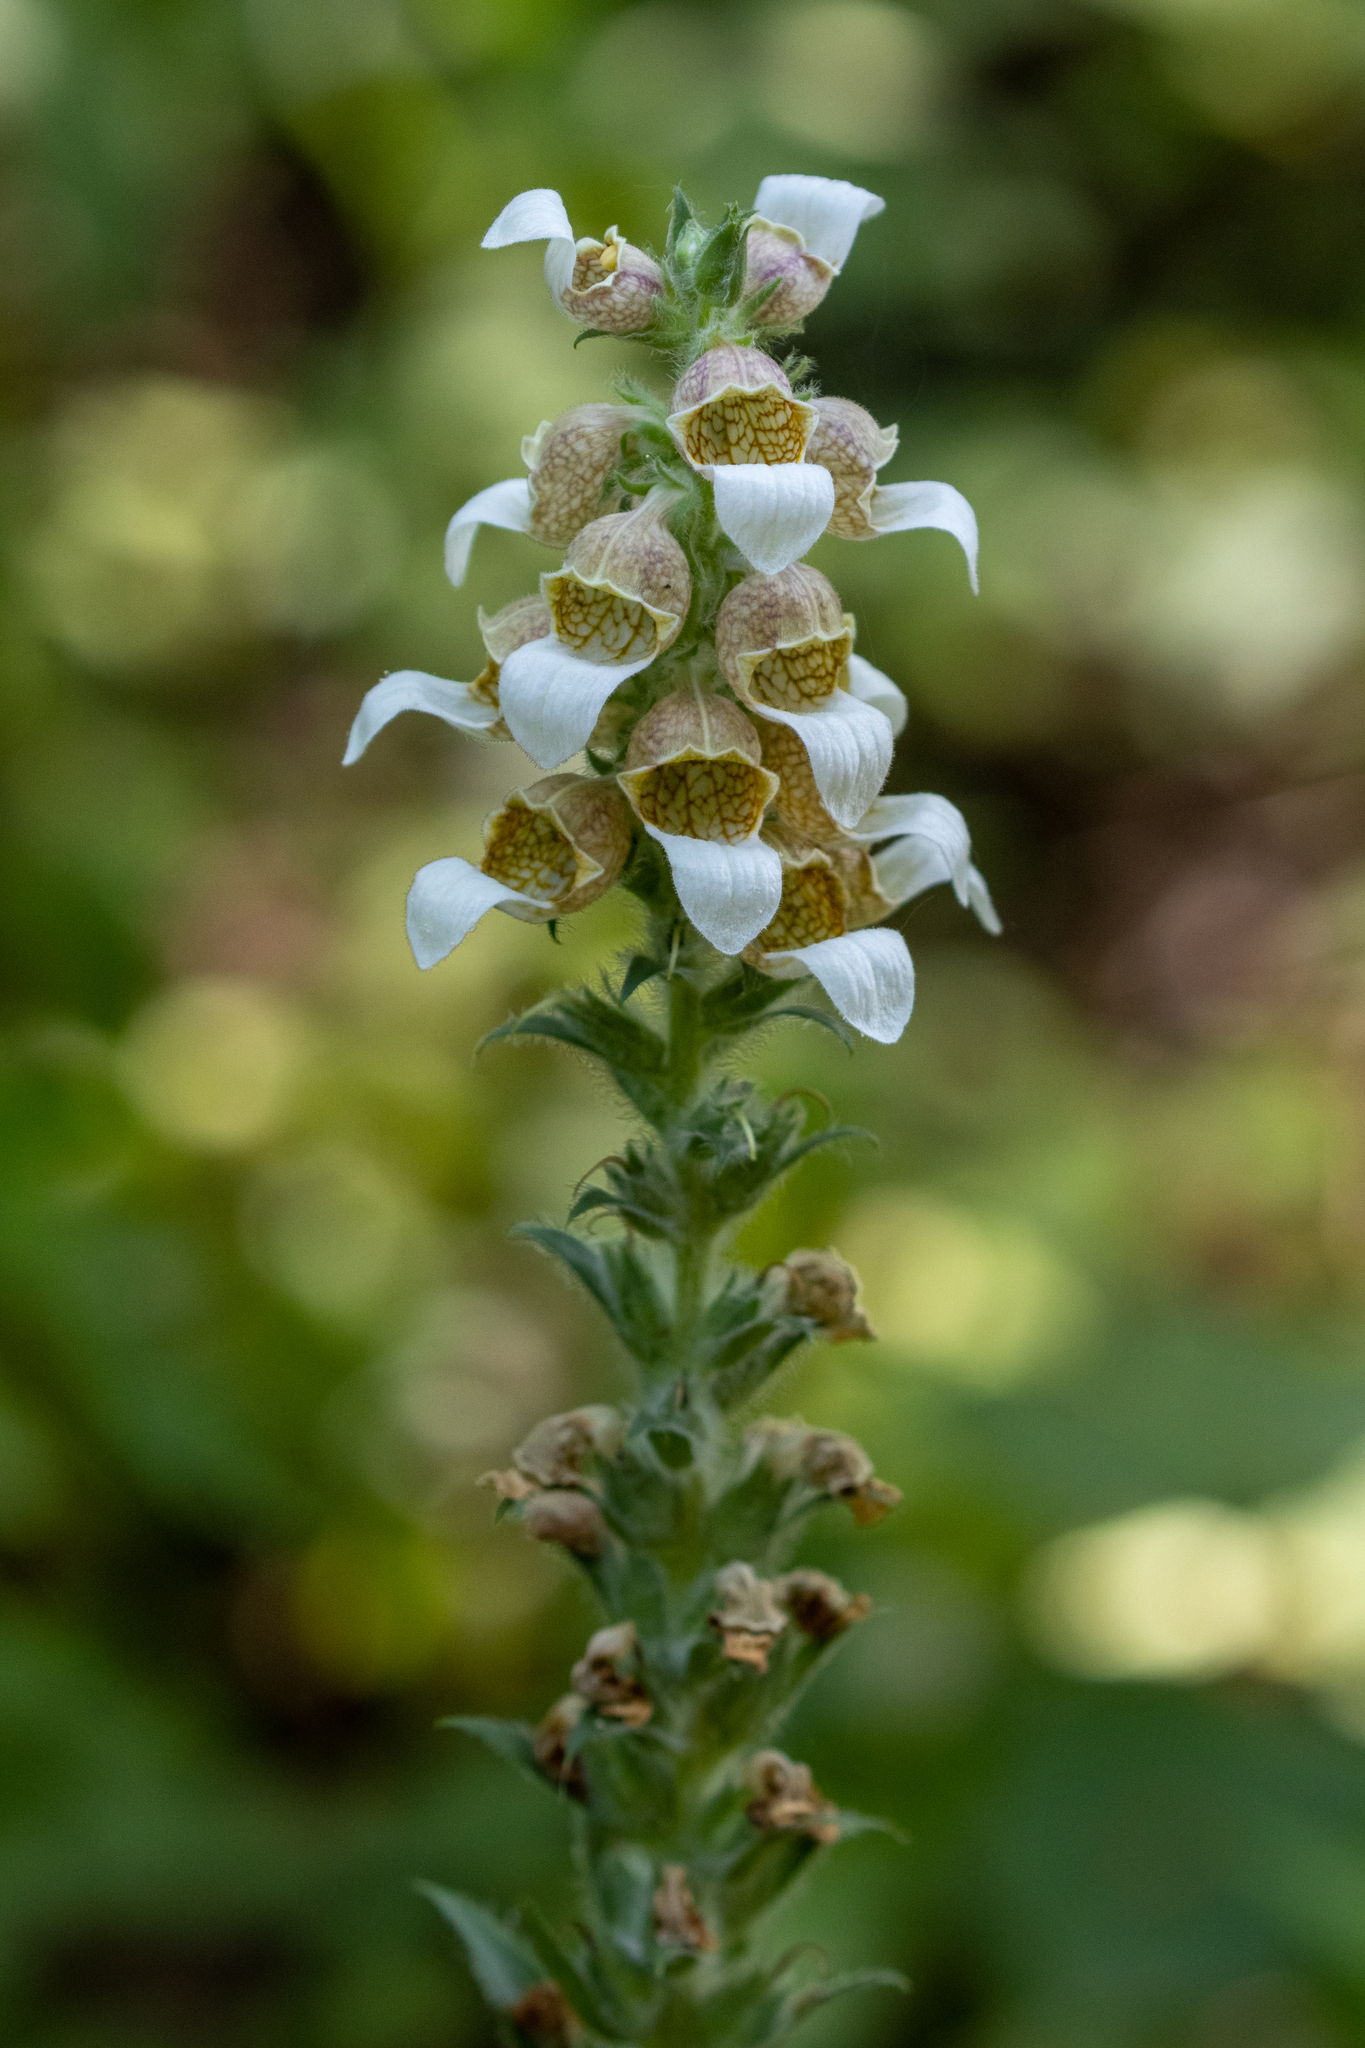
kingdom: Plantae
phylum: Tracheophyta
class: Magnoliopsida
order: Lamiales
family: Plantaginaceae
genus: Digitalis
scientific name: Digitalis lanata
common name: Grecian foxglove
